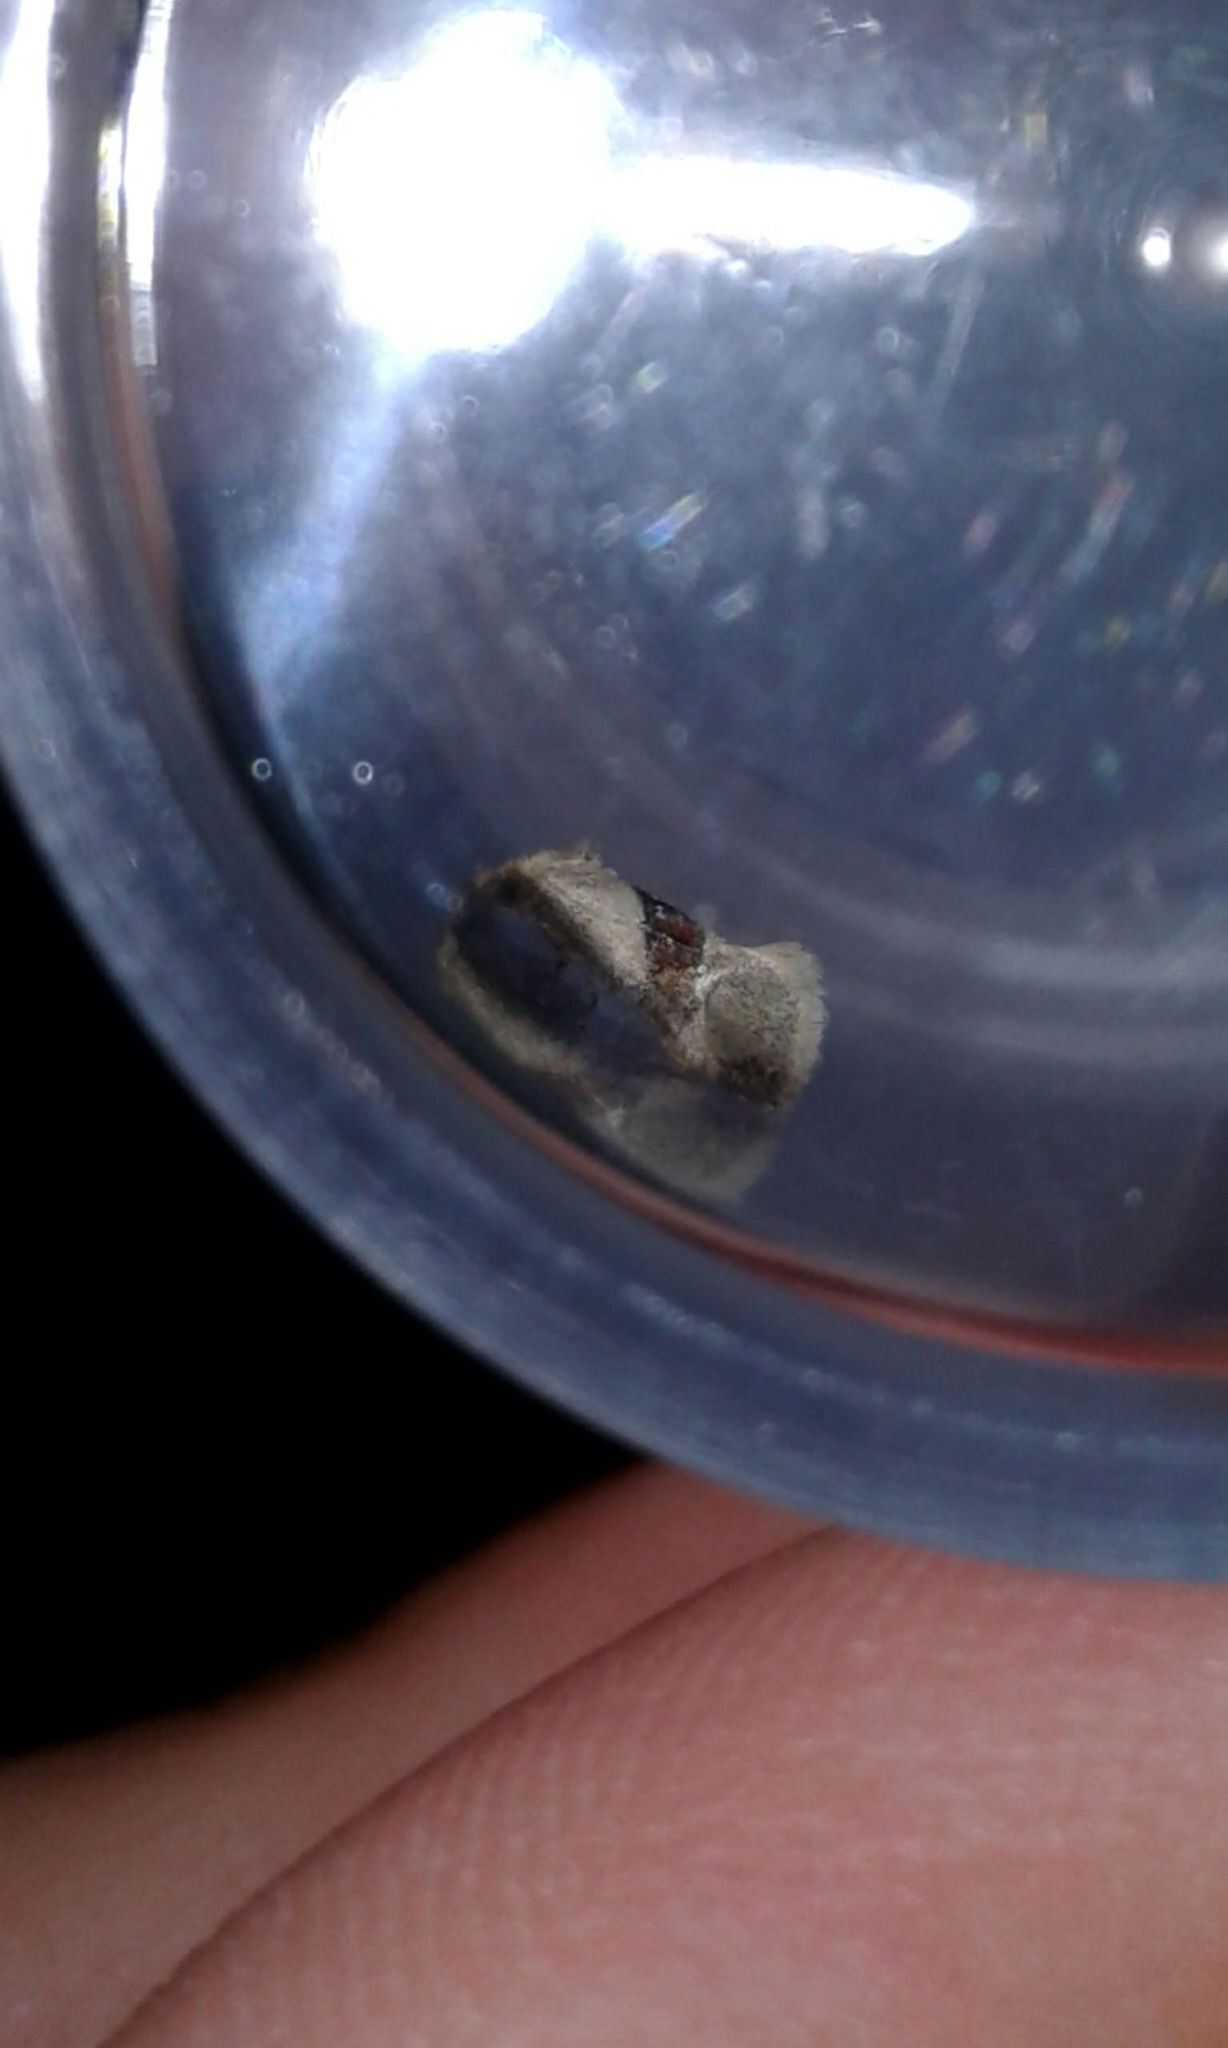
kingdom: Animalia
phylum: Arthropoda
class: Insecta
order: Lepidoptera
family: Tortricidae
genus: Phalonidia
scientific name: Phalonidia lepidana
